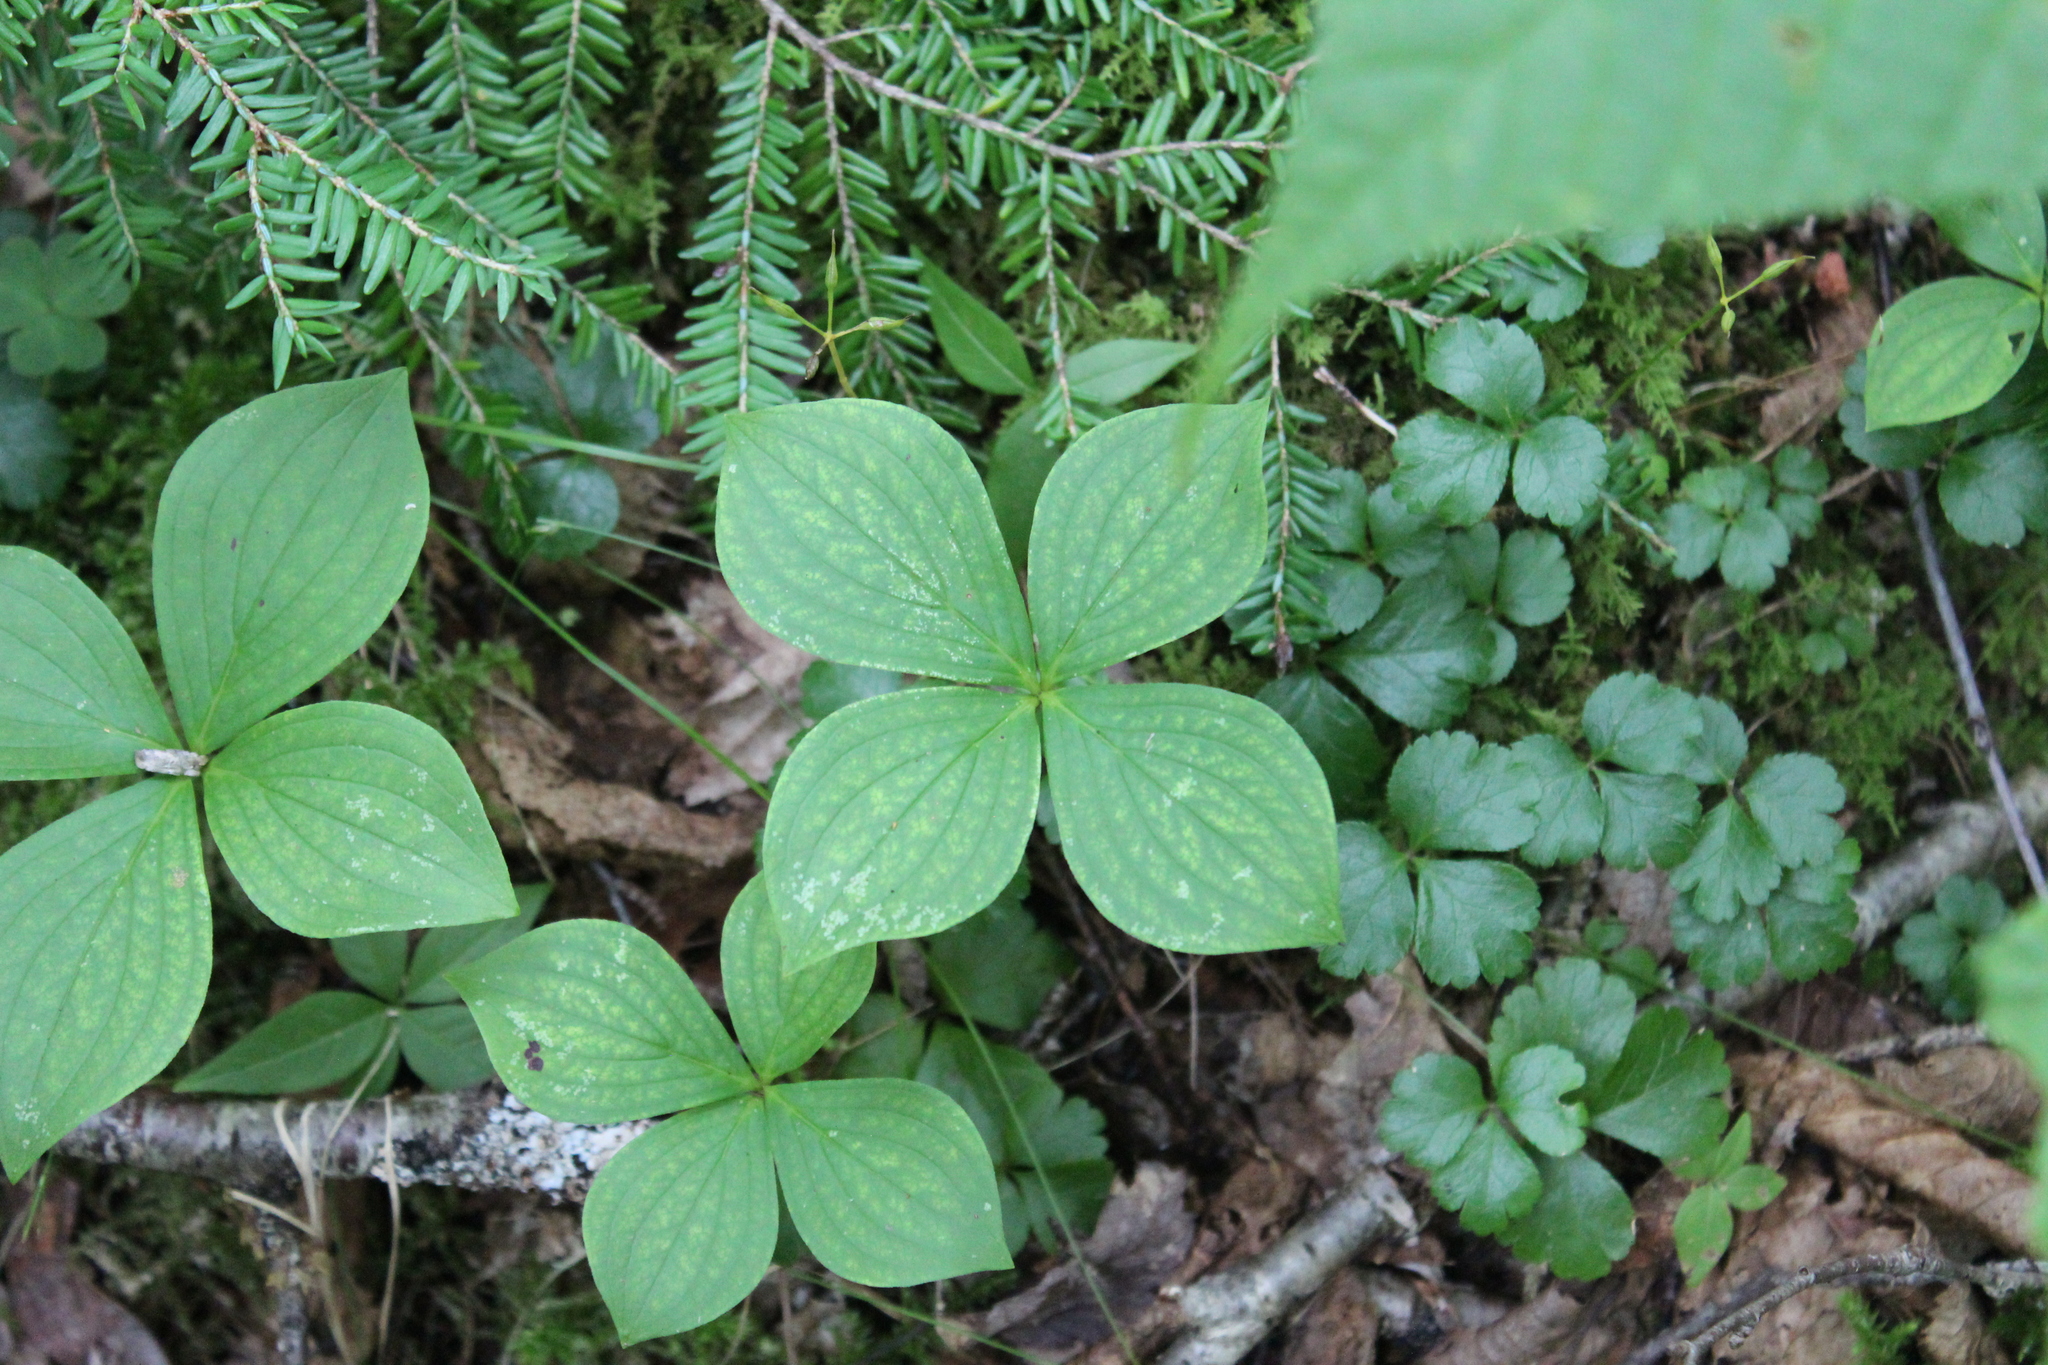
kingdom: Plantae
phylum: Tracheophyta
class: Magnoliopsida
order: Cornales
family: Cornaceae
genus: Cornus
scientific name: Cornus canadensis
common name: Creeping dogwood
